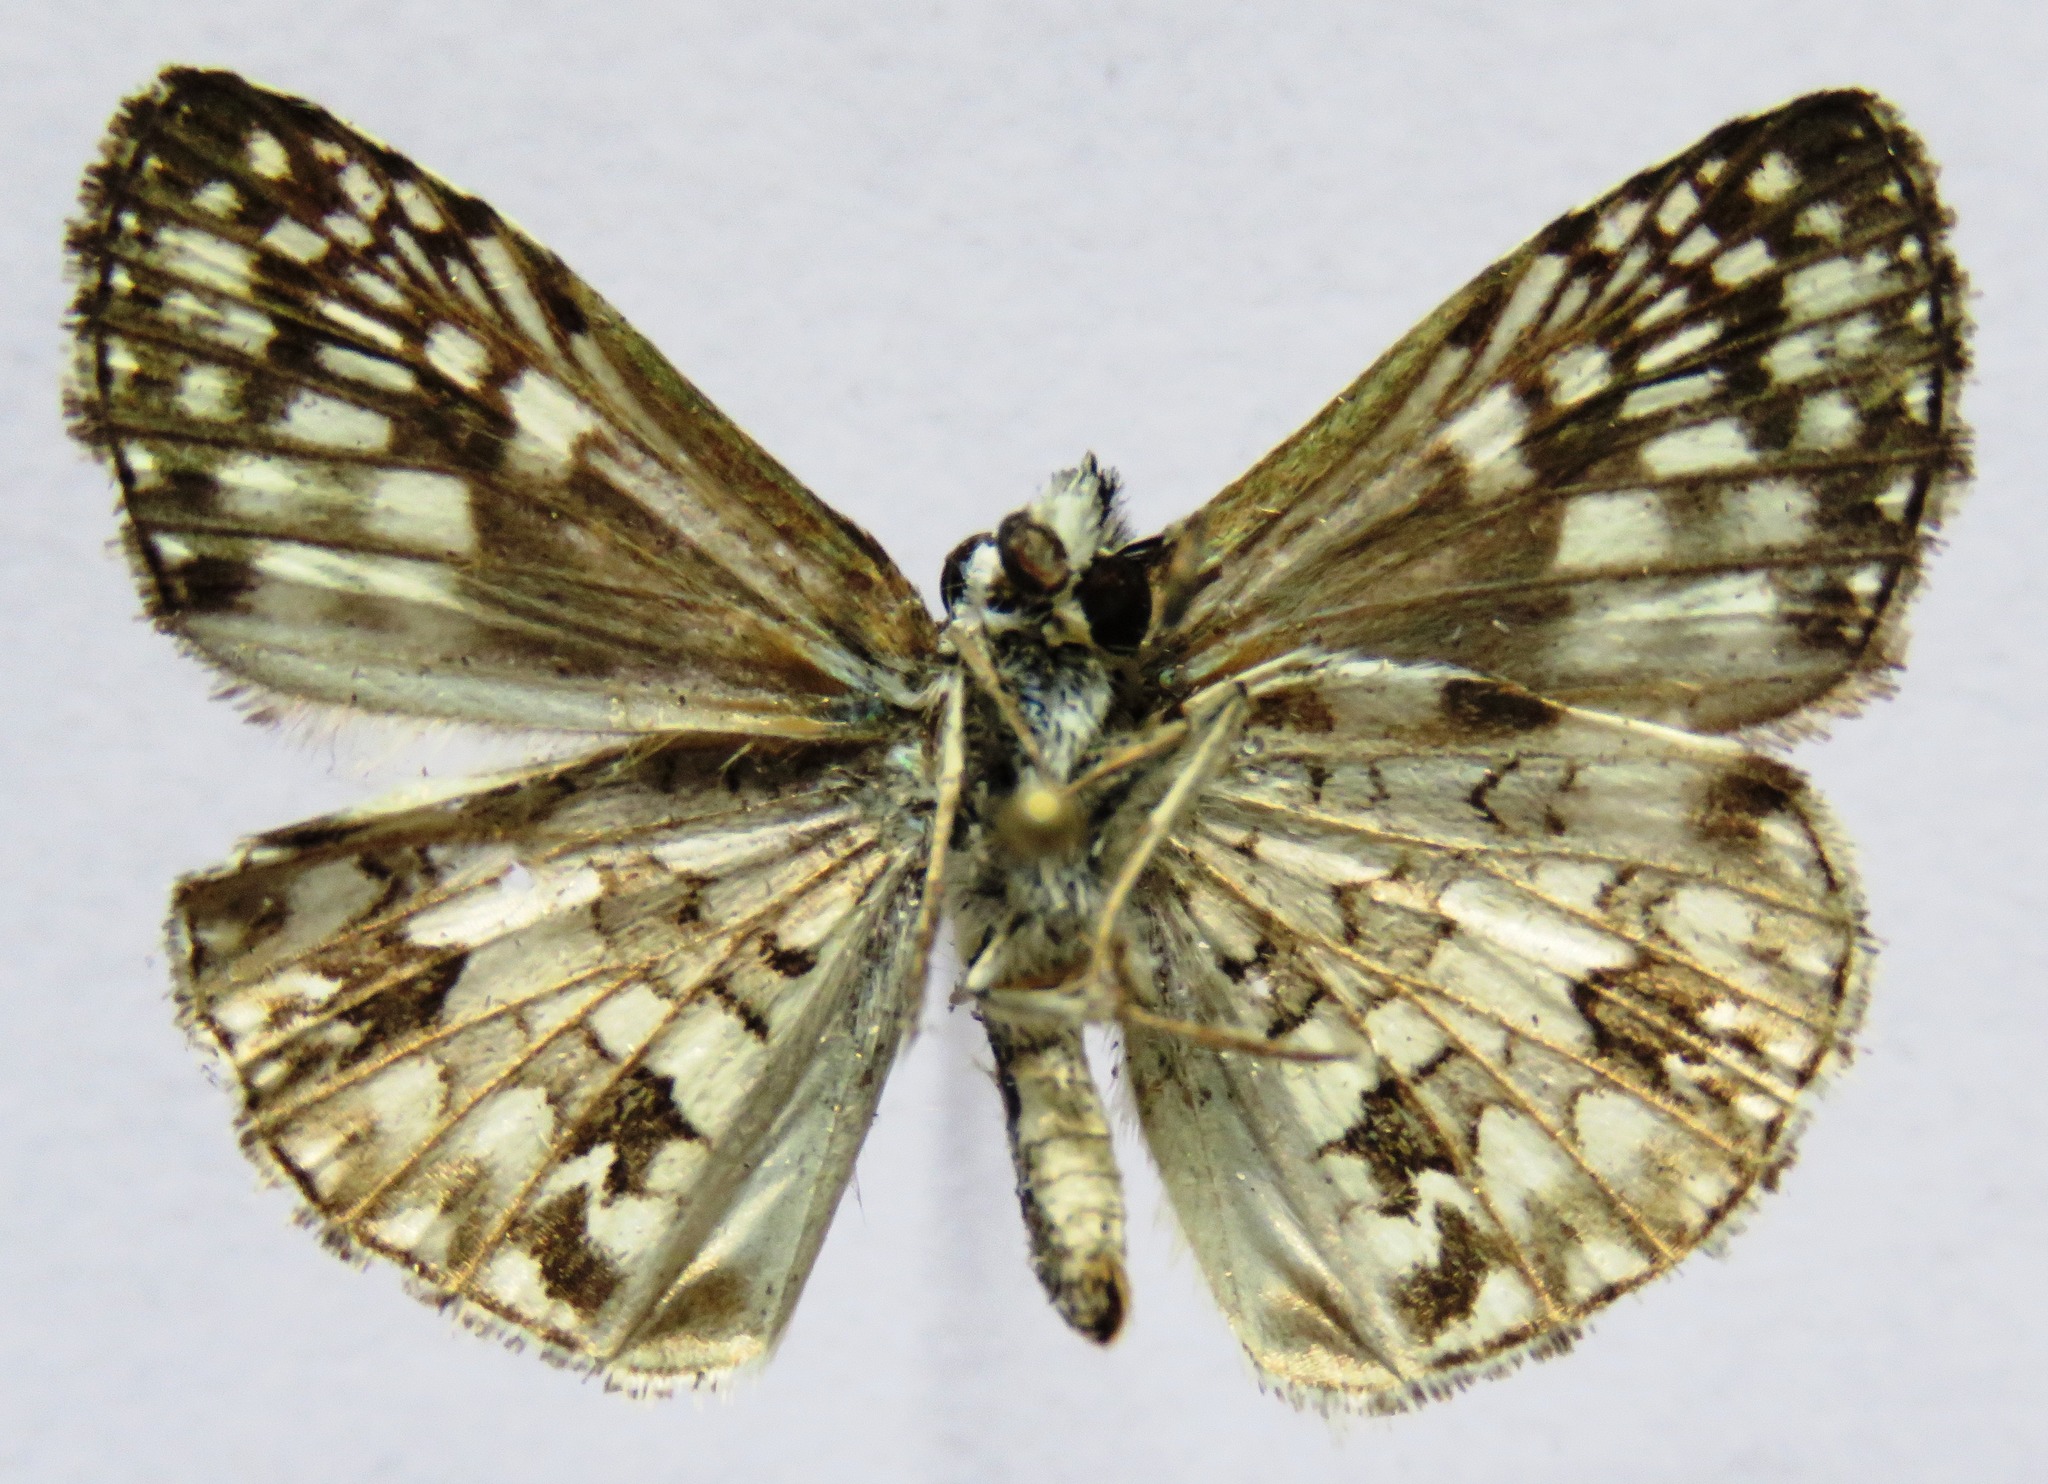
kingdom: Animalia
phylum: Arthropoda
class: Insecta
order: Lepidoptera
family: Hesperiidae
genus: Pyrgus
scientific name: Pyrgus oileus
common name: Tropical checkered-skipper
